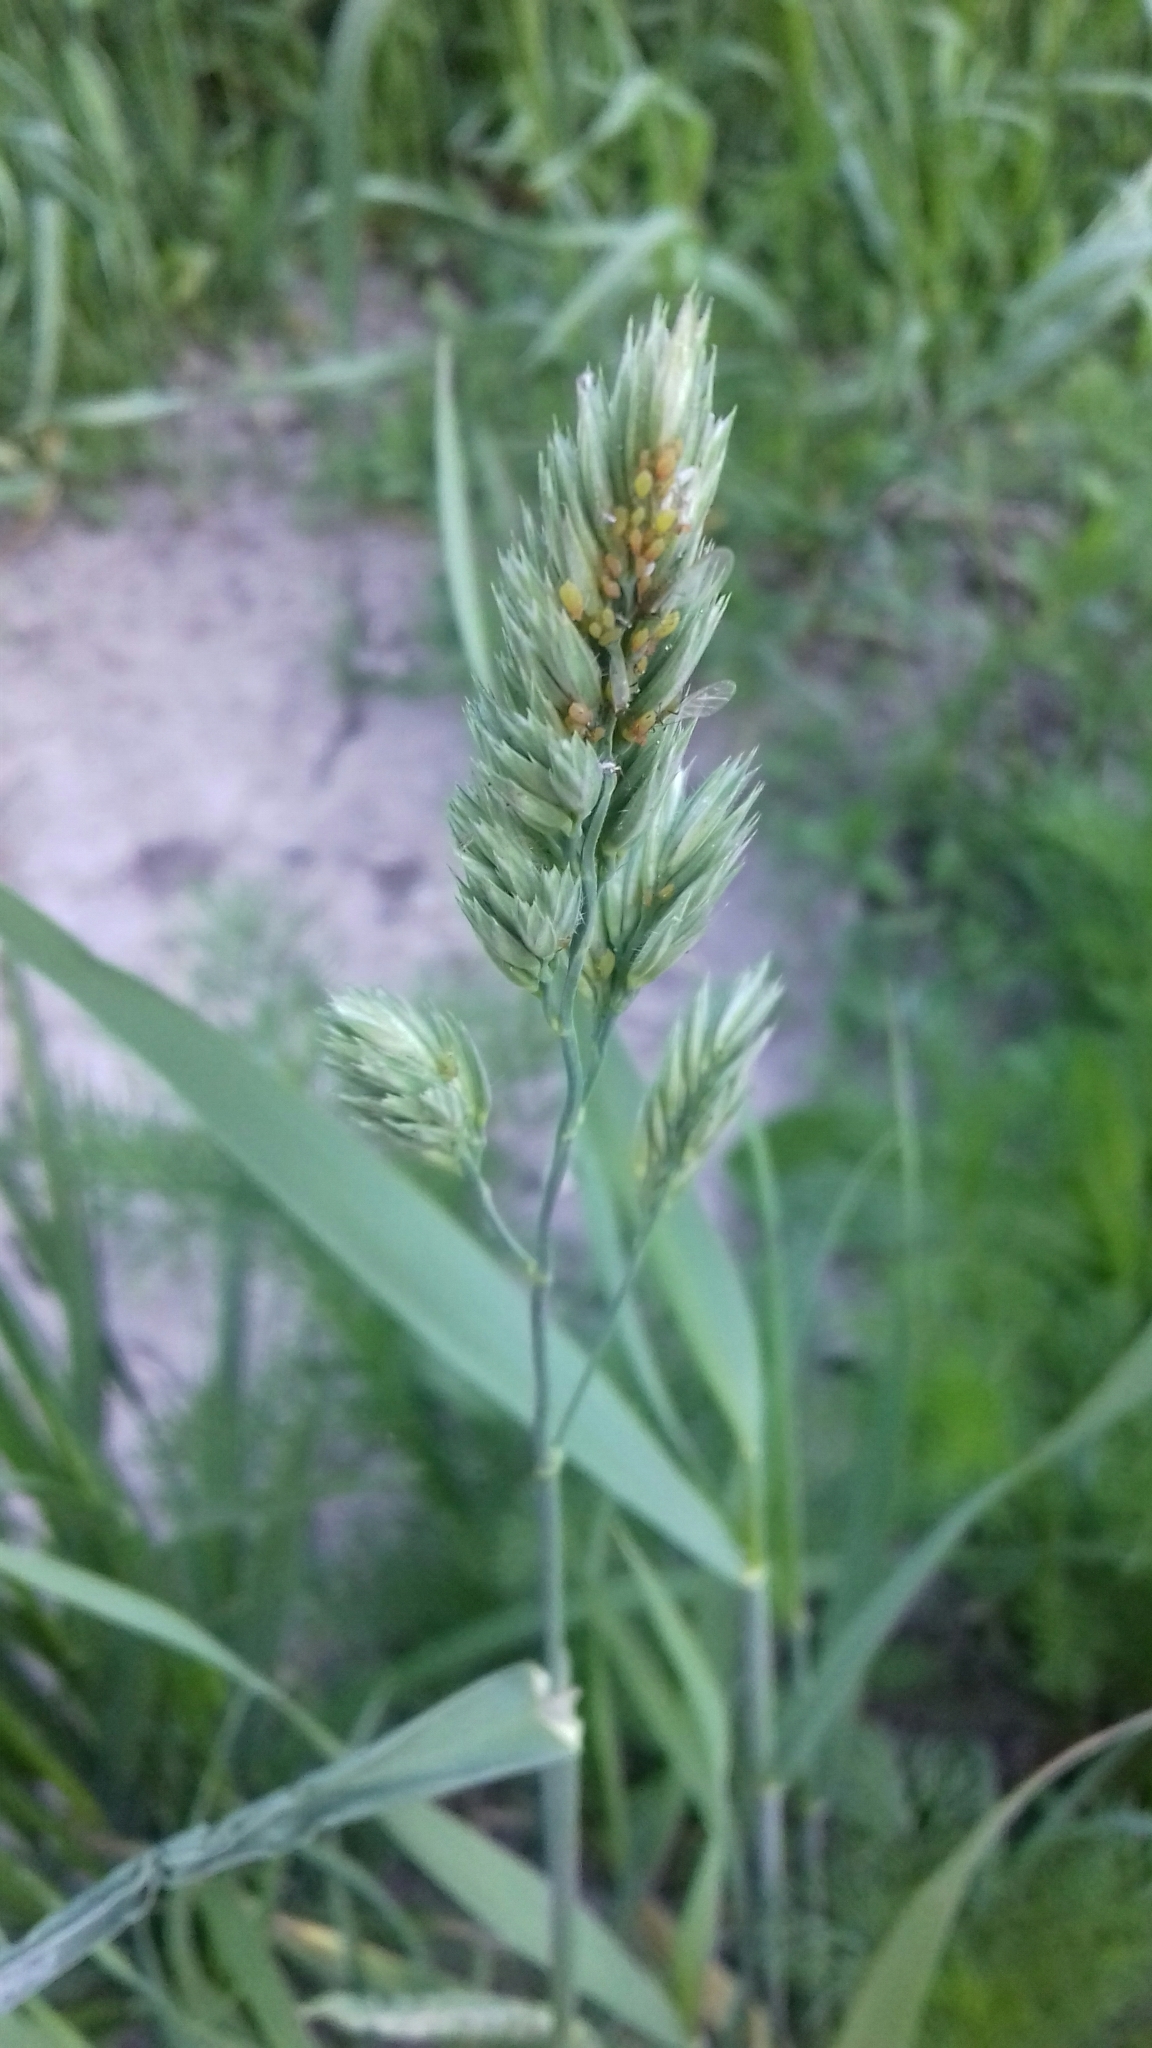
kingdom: Plantae
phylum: Tracheophyta
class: Liliopsida
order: Poales
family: Poaceae
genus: Dactylis
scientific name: Dactylis glomerata
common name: Orchardgrass
